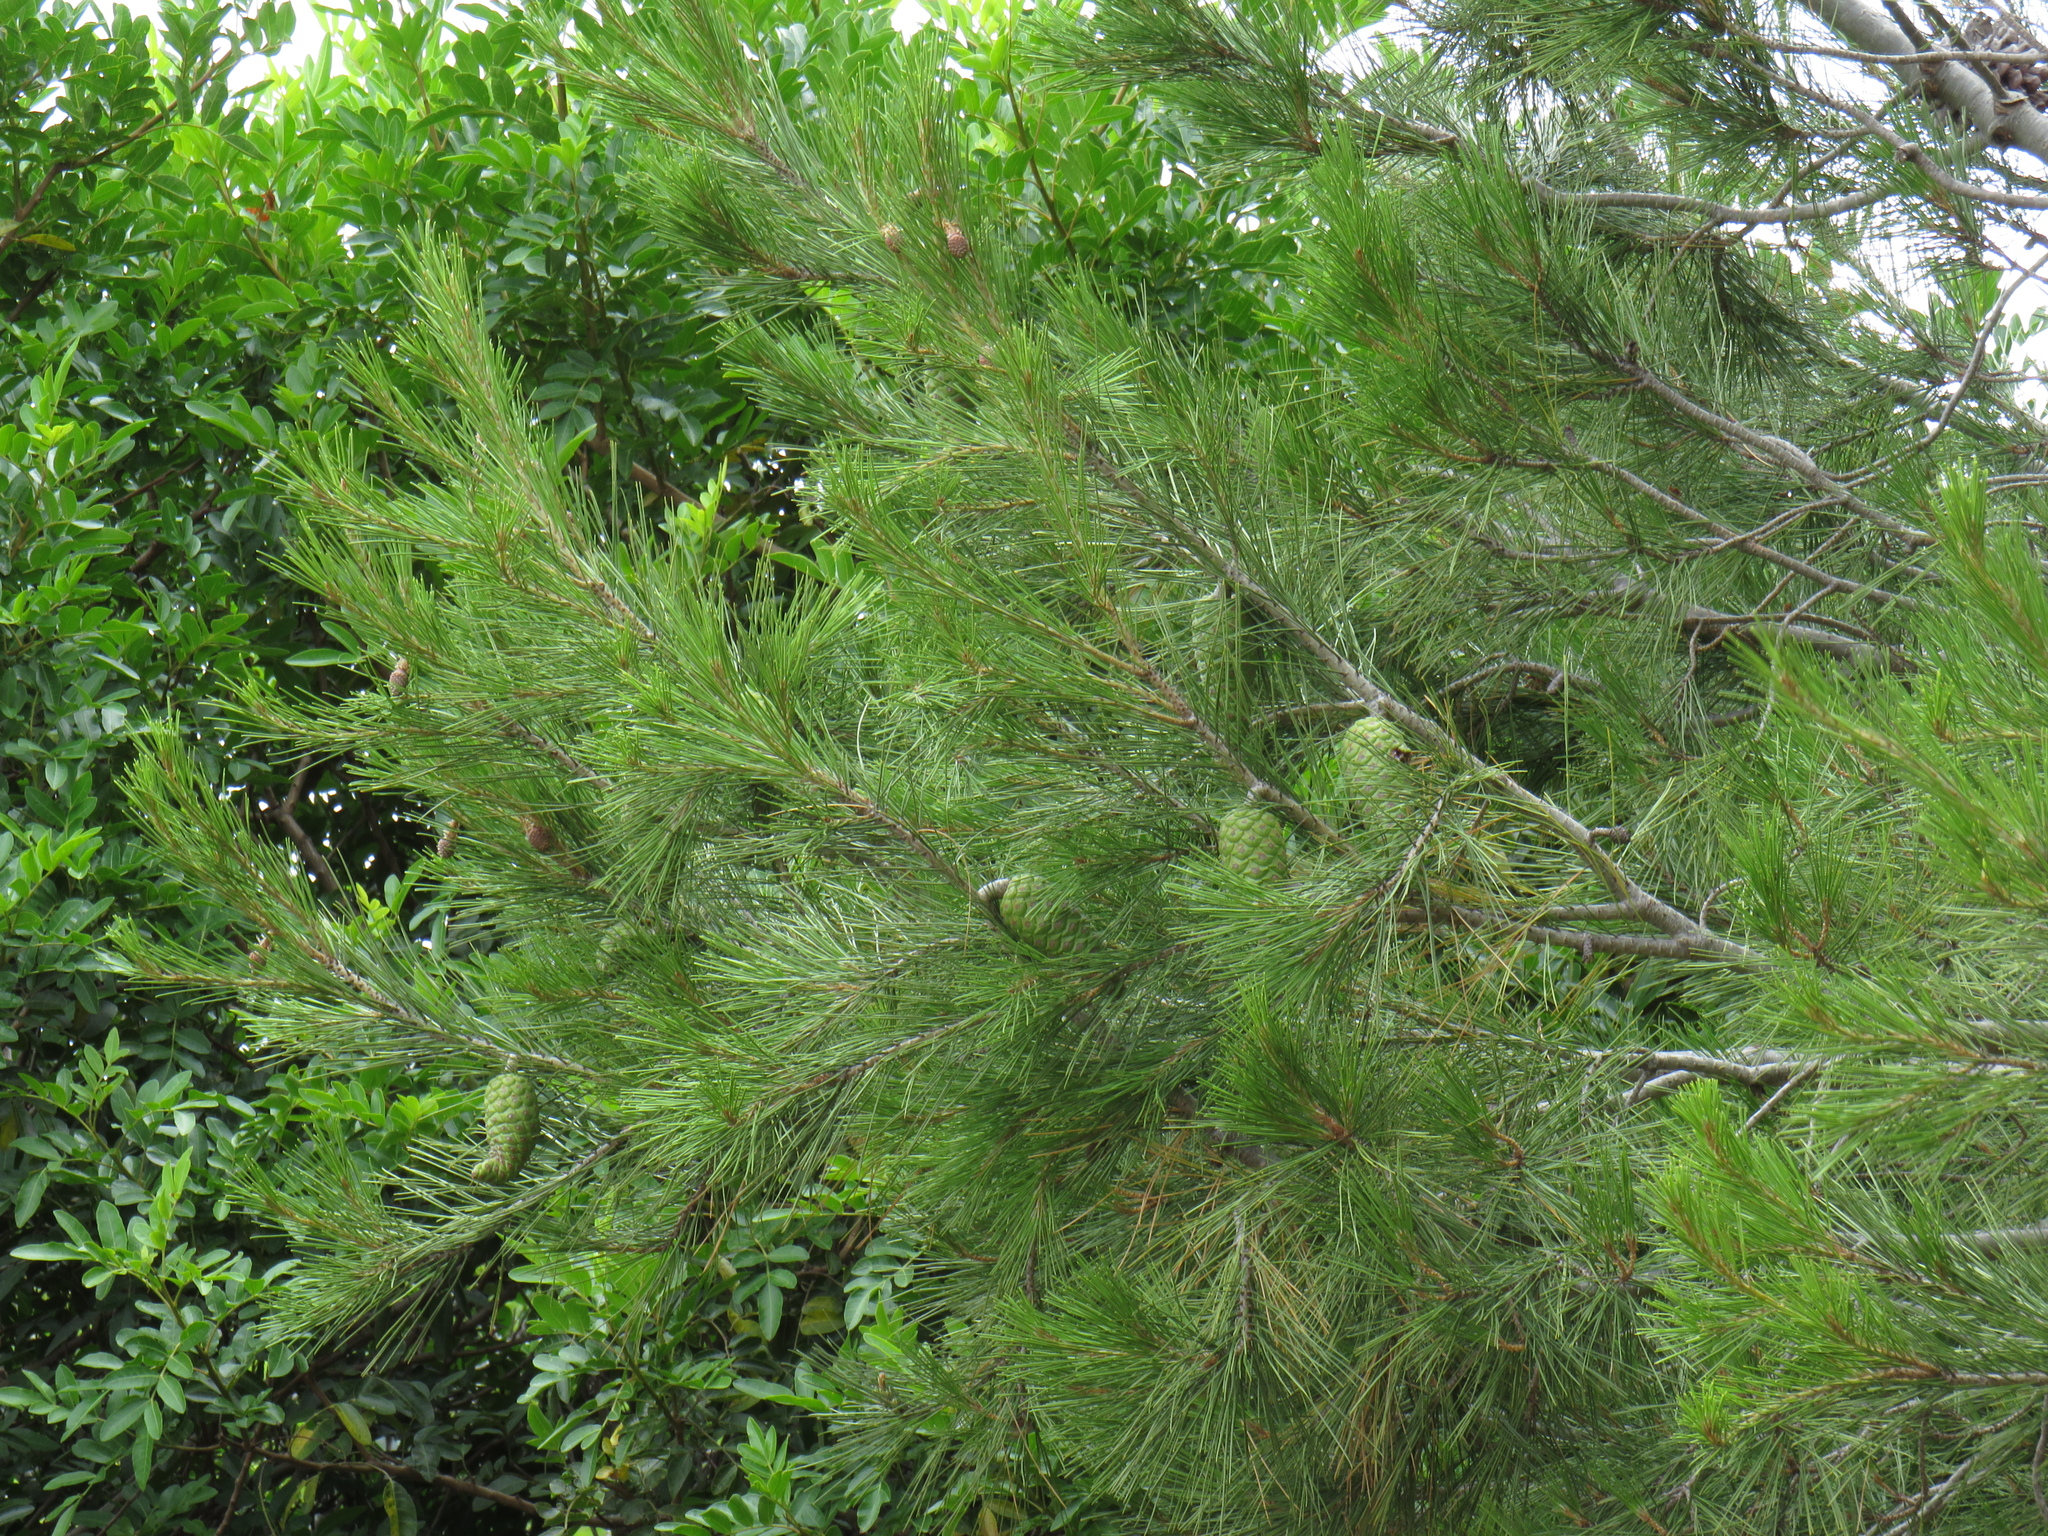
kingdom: Plantae
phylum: Tracheophyta
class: Pinopsida
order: Pinales
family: Pinaceae
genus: Pinus
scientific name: Pinus halepensis
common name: Aleppo pine
